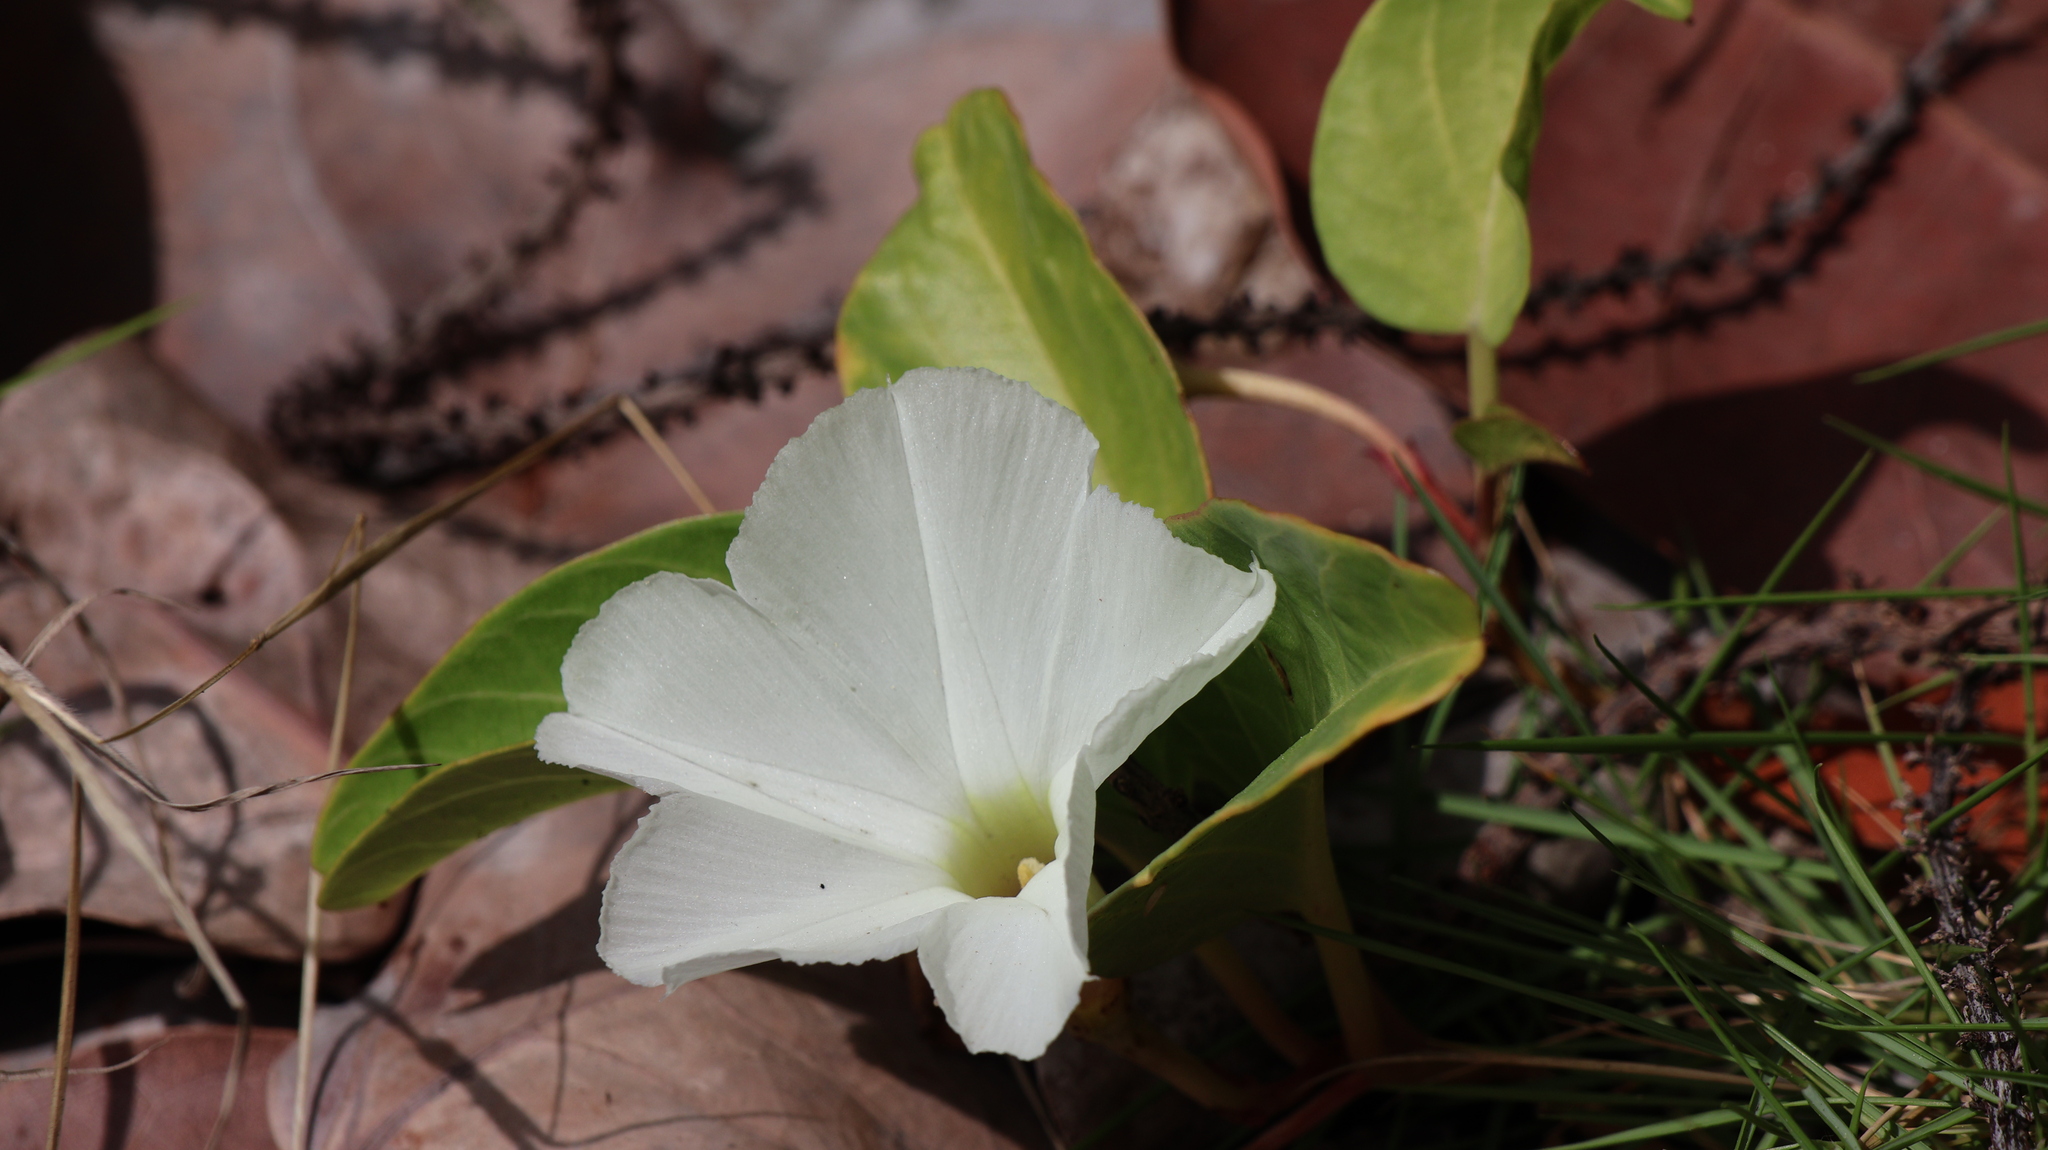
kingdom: Plantae
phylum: Tracheophyta
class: Magnoliopsida
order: Solanales
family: Convolvulaceae
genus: Ipomoea
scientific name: Ipomoea imperati
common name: Fiddle-leaf morning-glory
